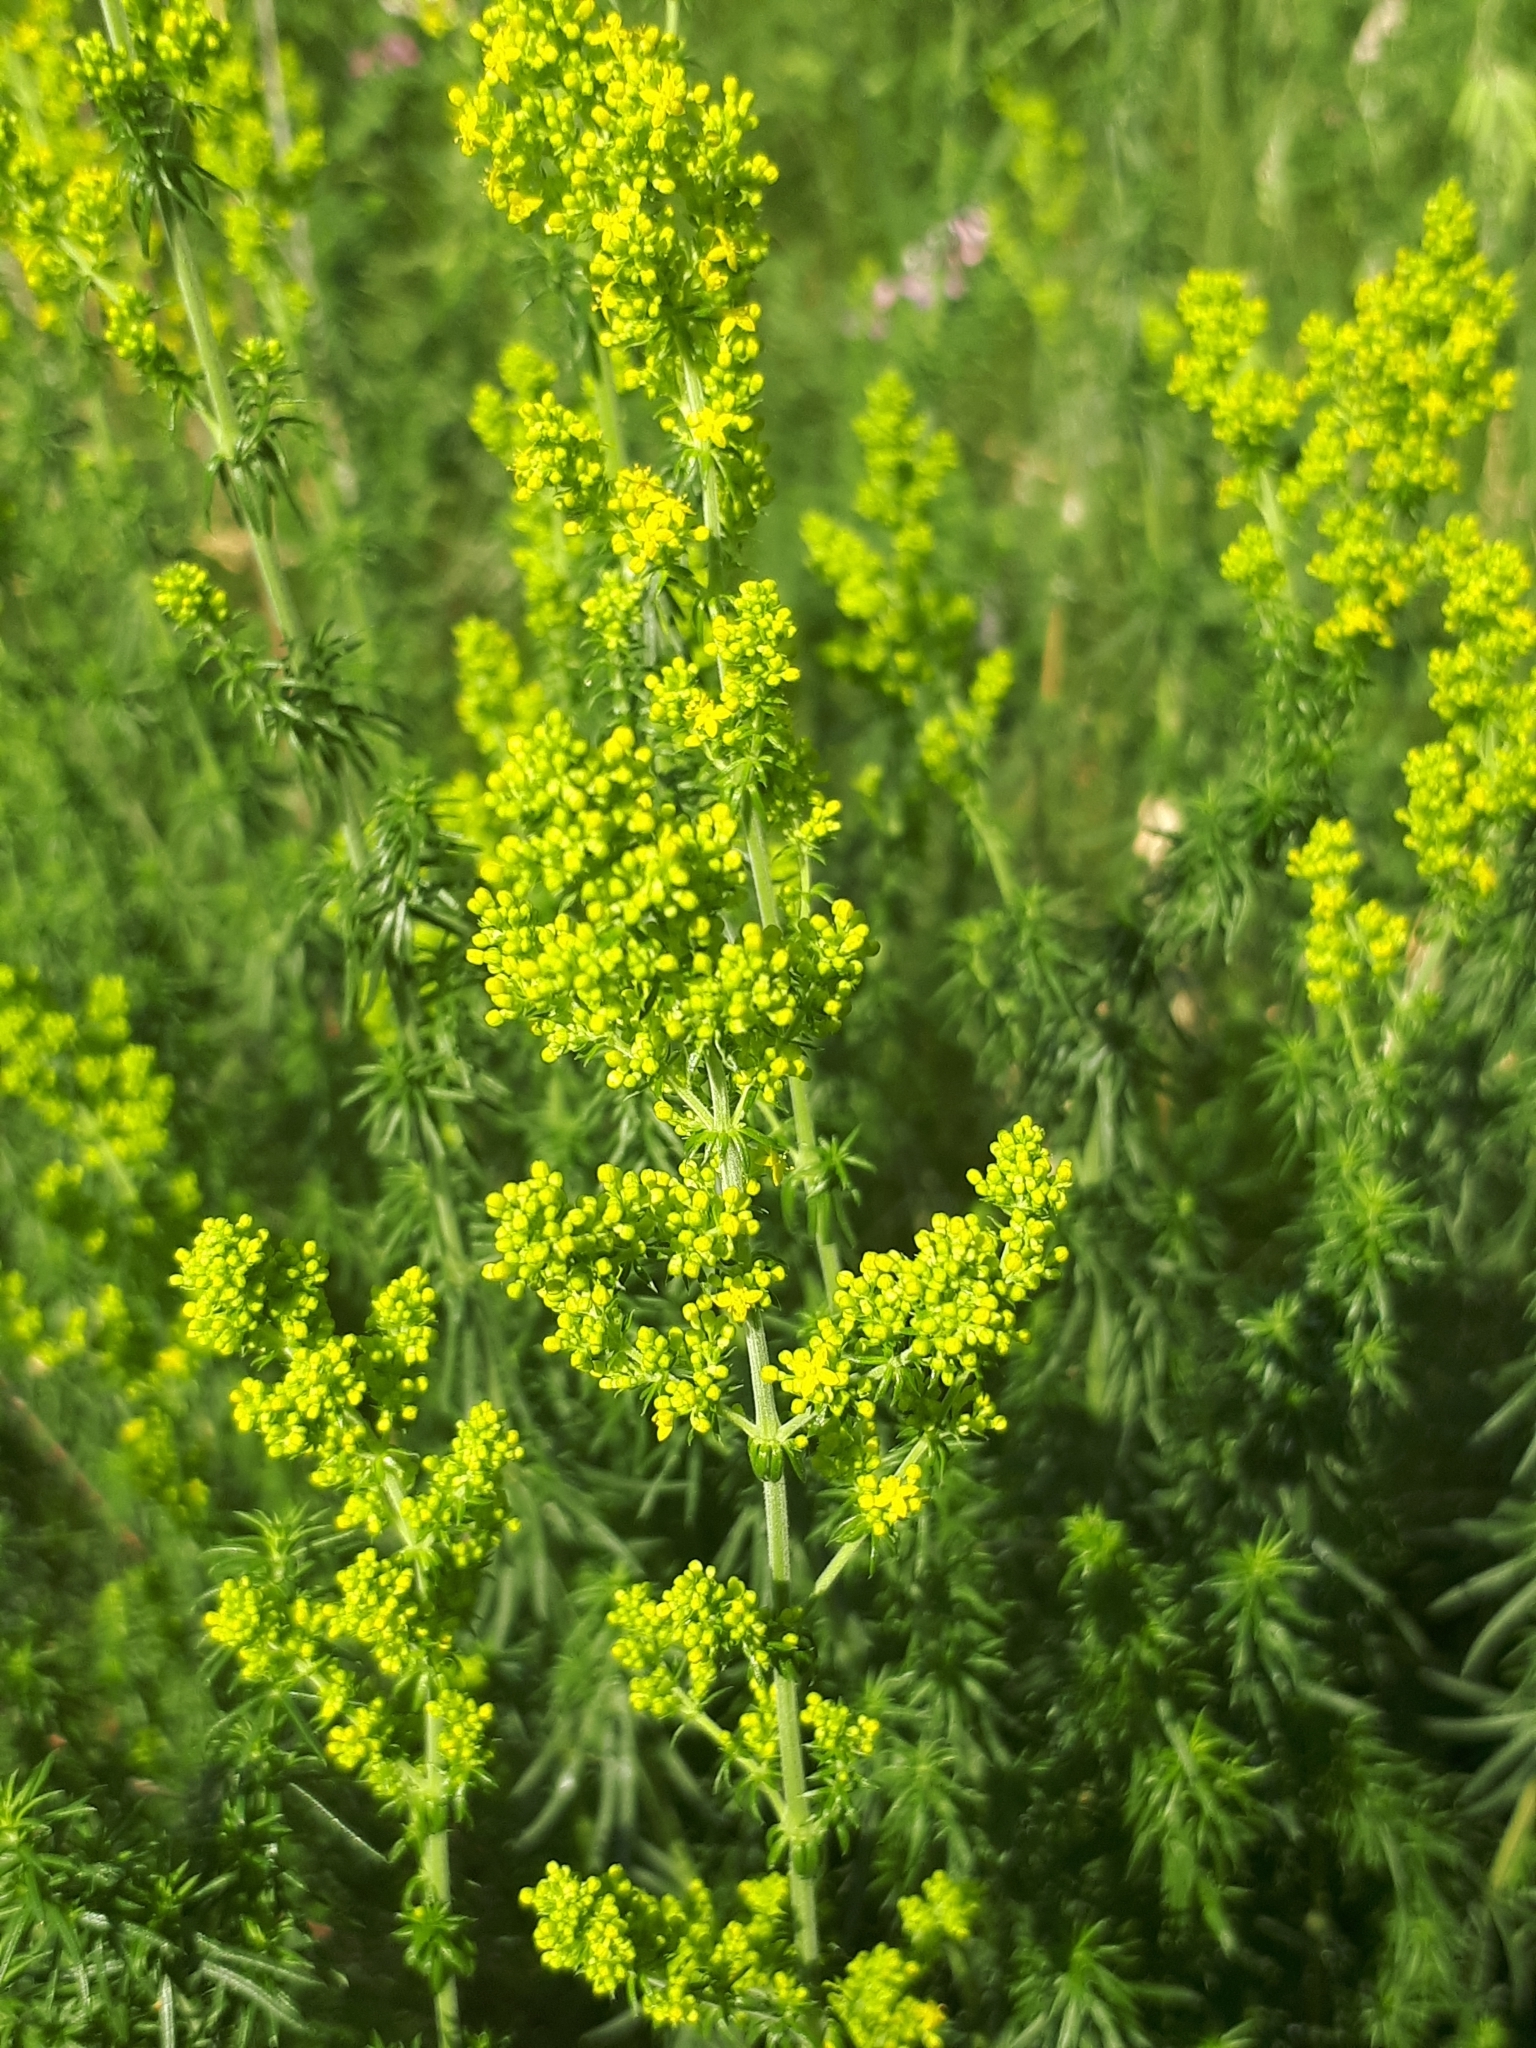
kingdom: Plantae
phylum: Tracheophyta
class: Magnoliopsida
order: Gentianales
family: Rubiaceae
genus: Galium
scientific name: Galium verum
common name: Lady's bedstraw
